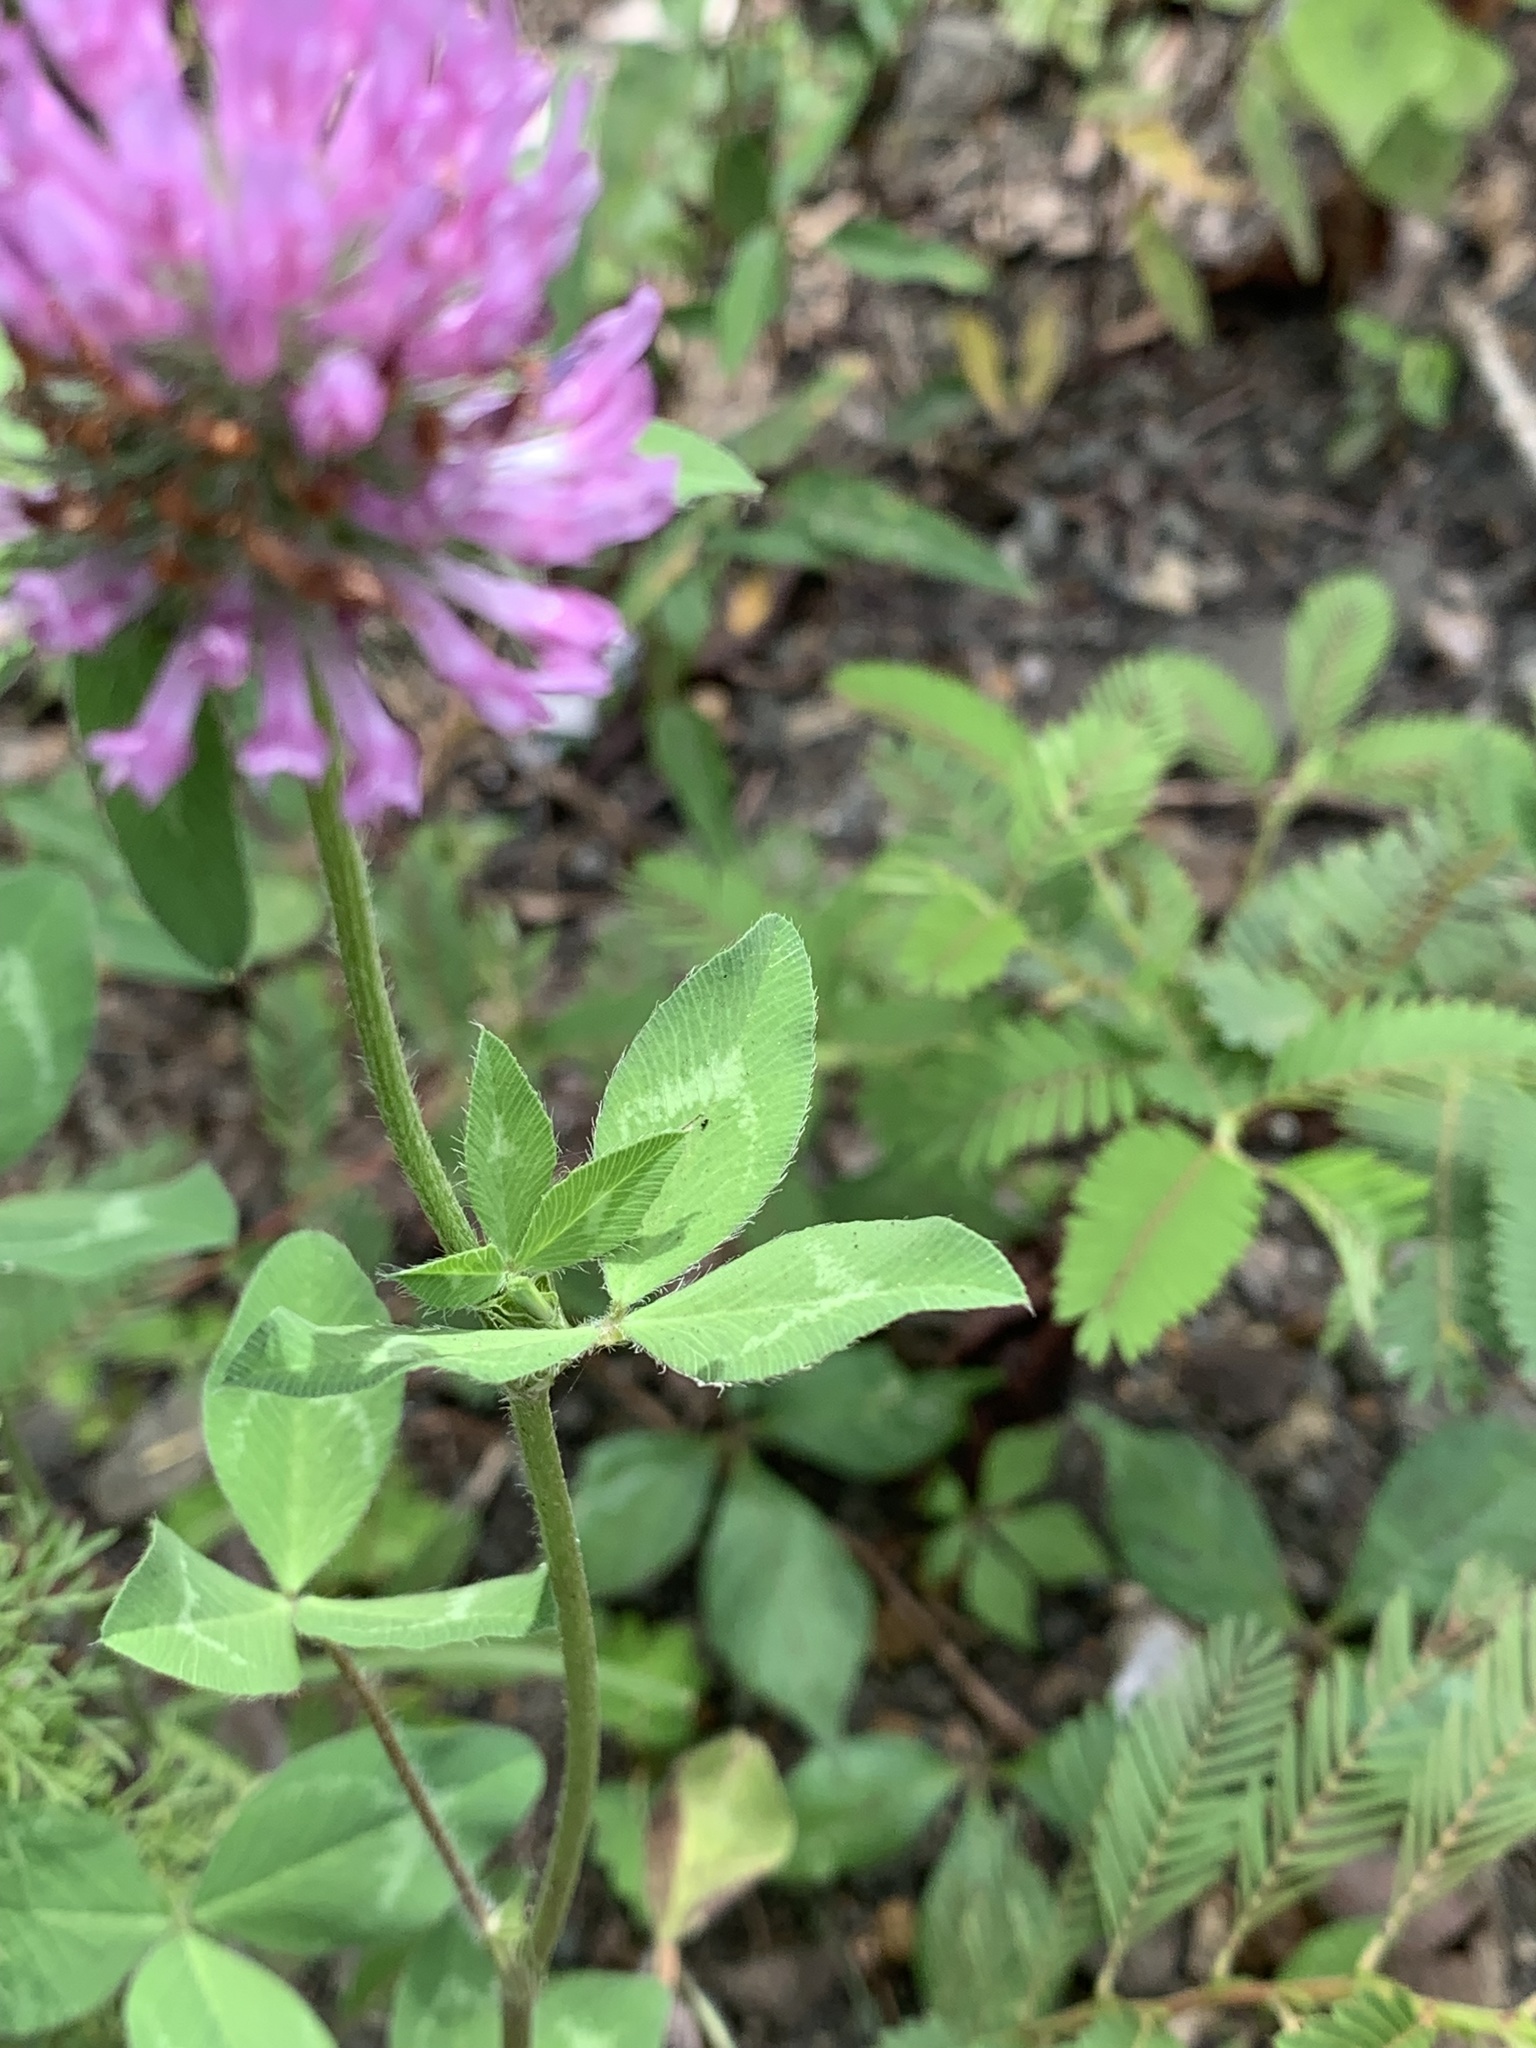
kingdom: Plantae
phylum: Tracheophyta
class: Magnoliopsida
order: Fabales
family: Fabaceae
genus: Trifolium
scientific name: Trifolium pratense
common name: Red clover
